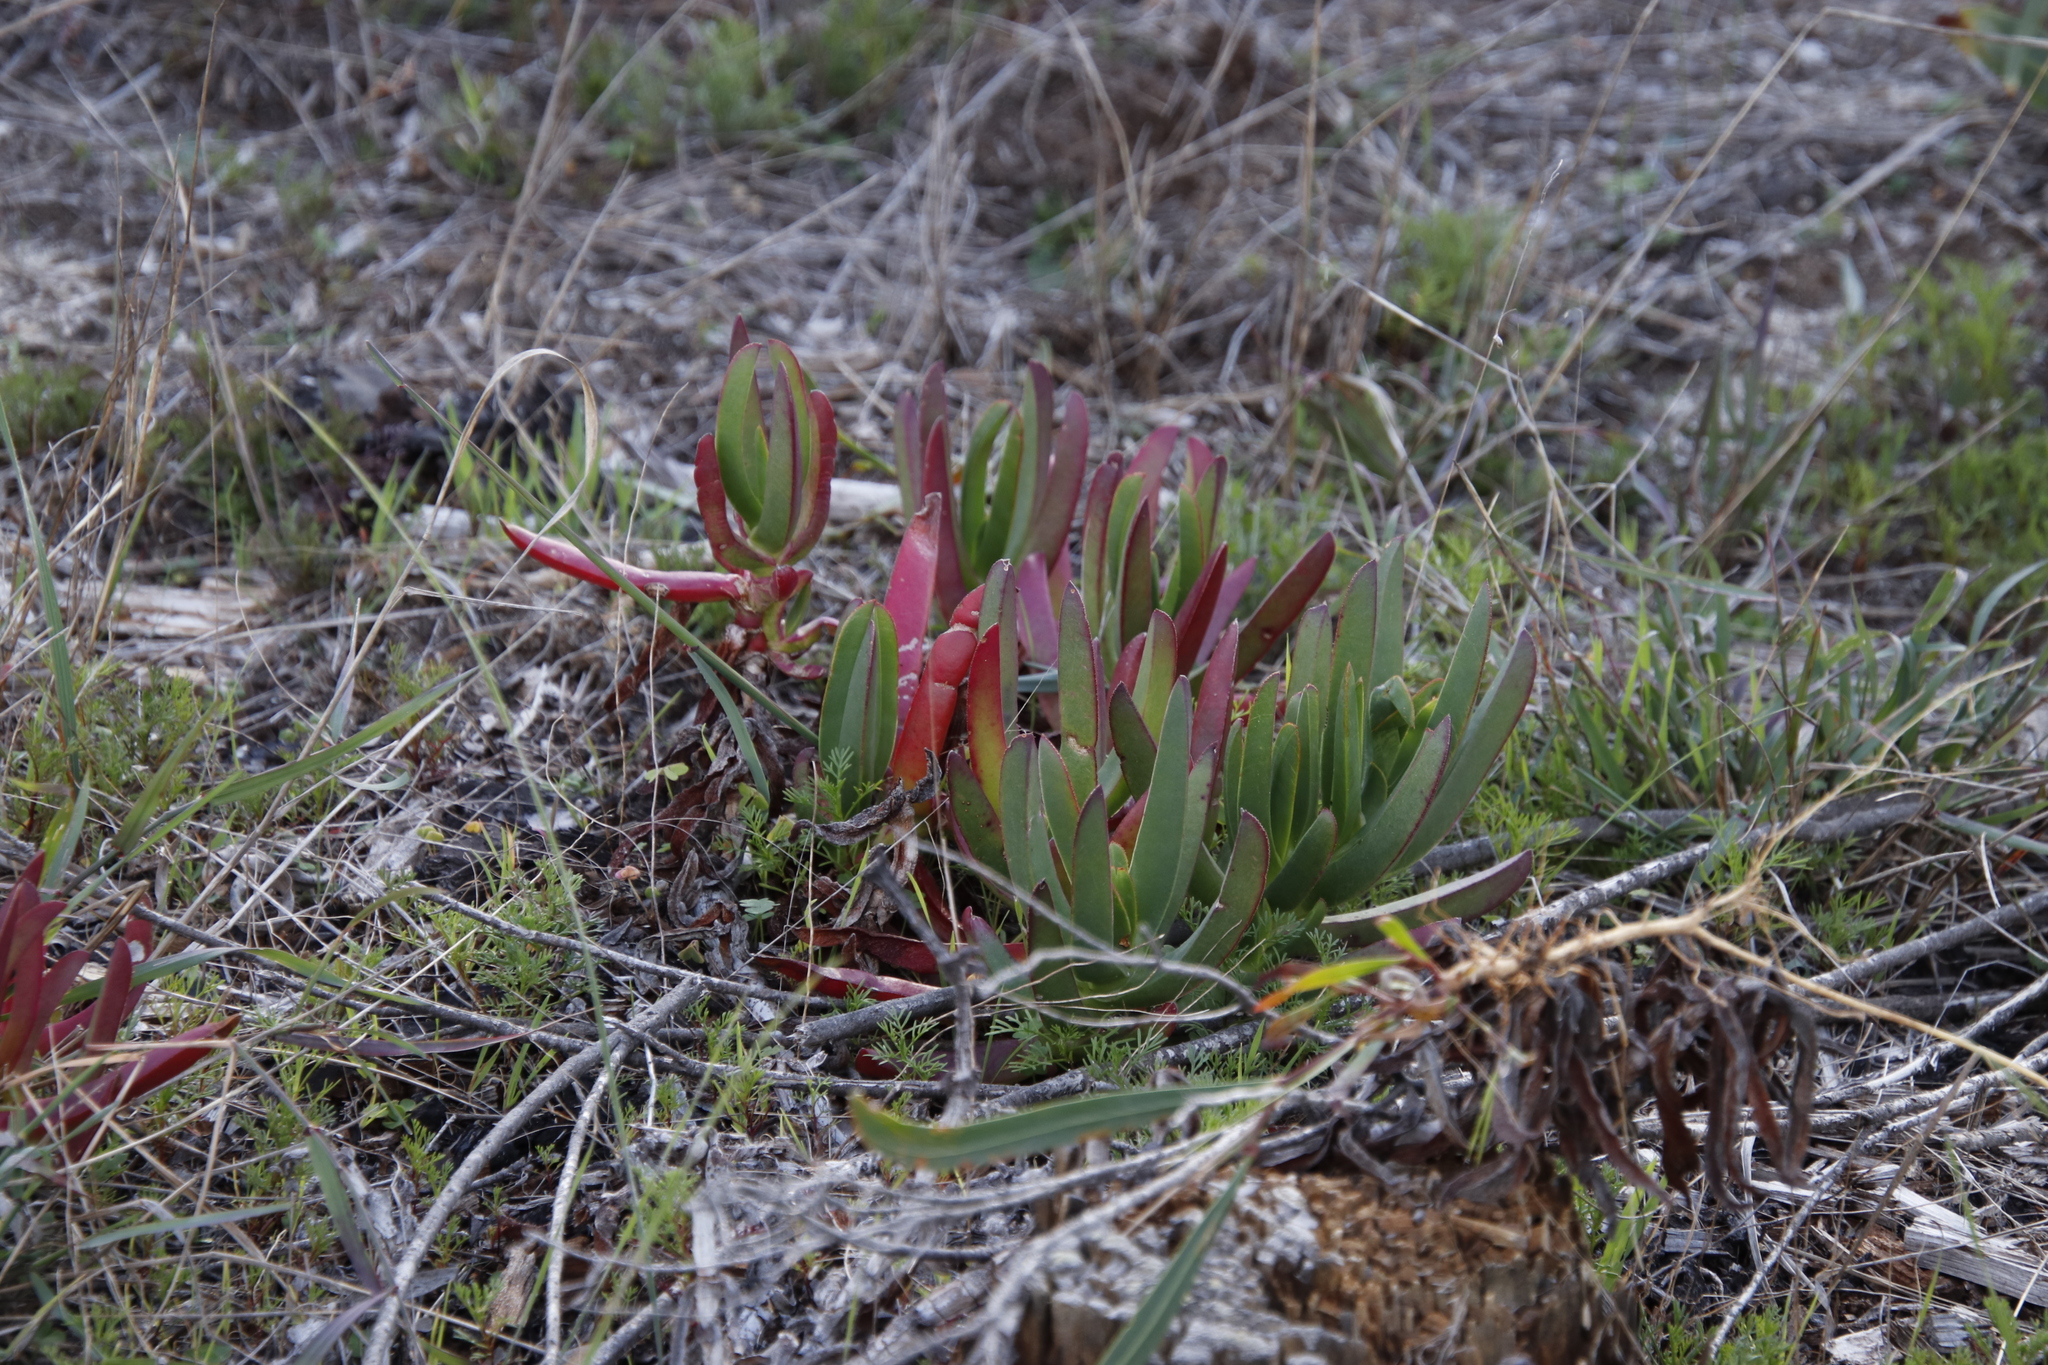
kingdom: Plantae
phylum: Tracheophyta
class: Magnoliopsida
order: Caryophyllales
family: Aizoaceae
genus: Carpobrotus
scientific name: Carpobrotus edulis
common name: Hottentot-fig
